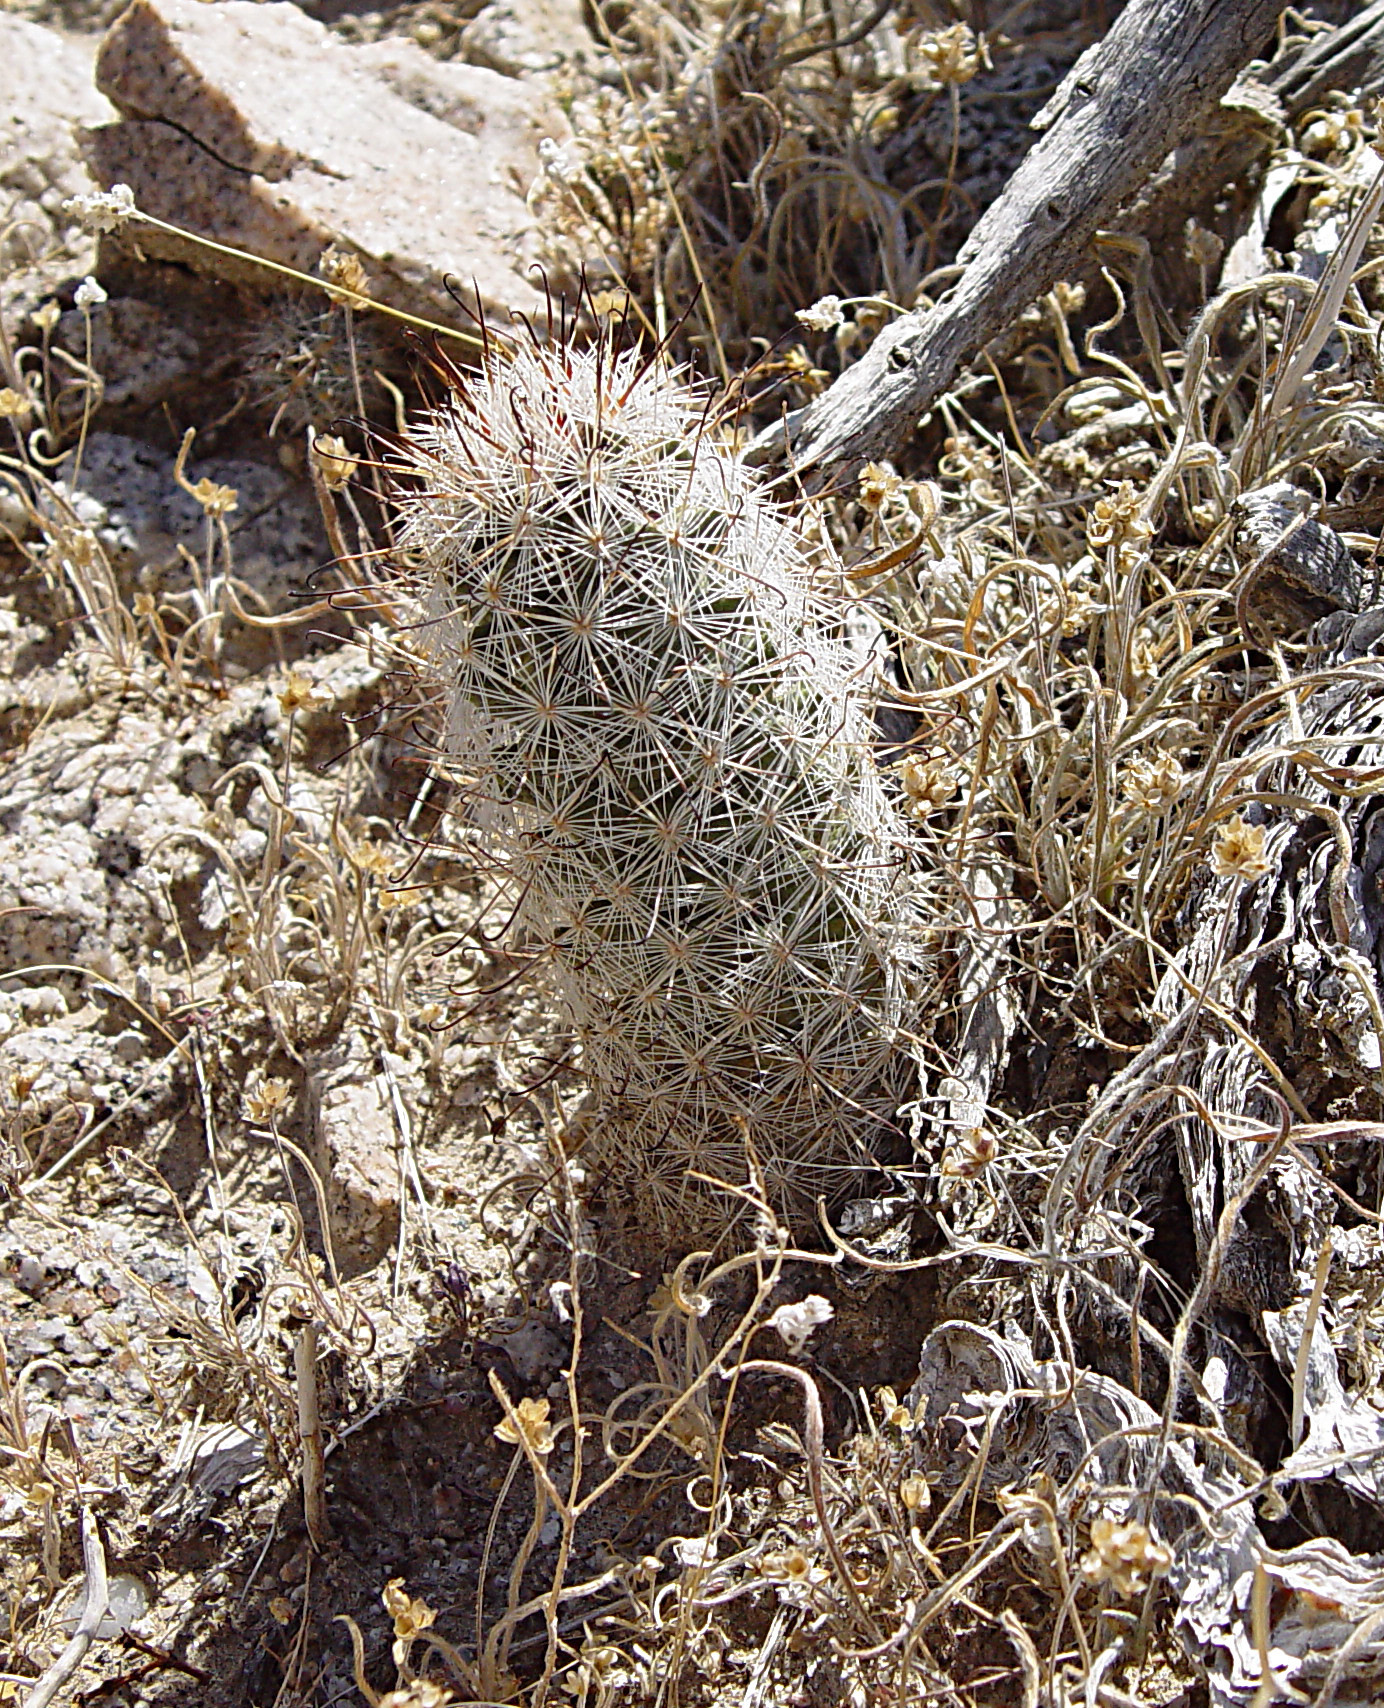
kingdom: Plantae
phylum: Tracheophyta
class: Magnoliopsida
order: Caryophyllales
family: Cactaceae
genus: Cochemiea
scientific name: Cochemiea tetrancistra
